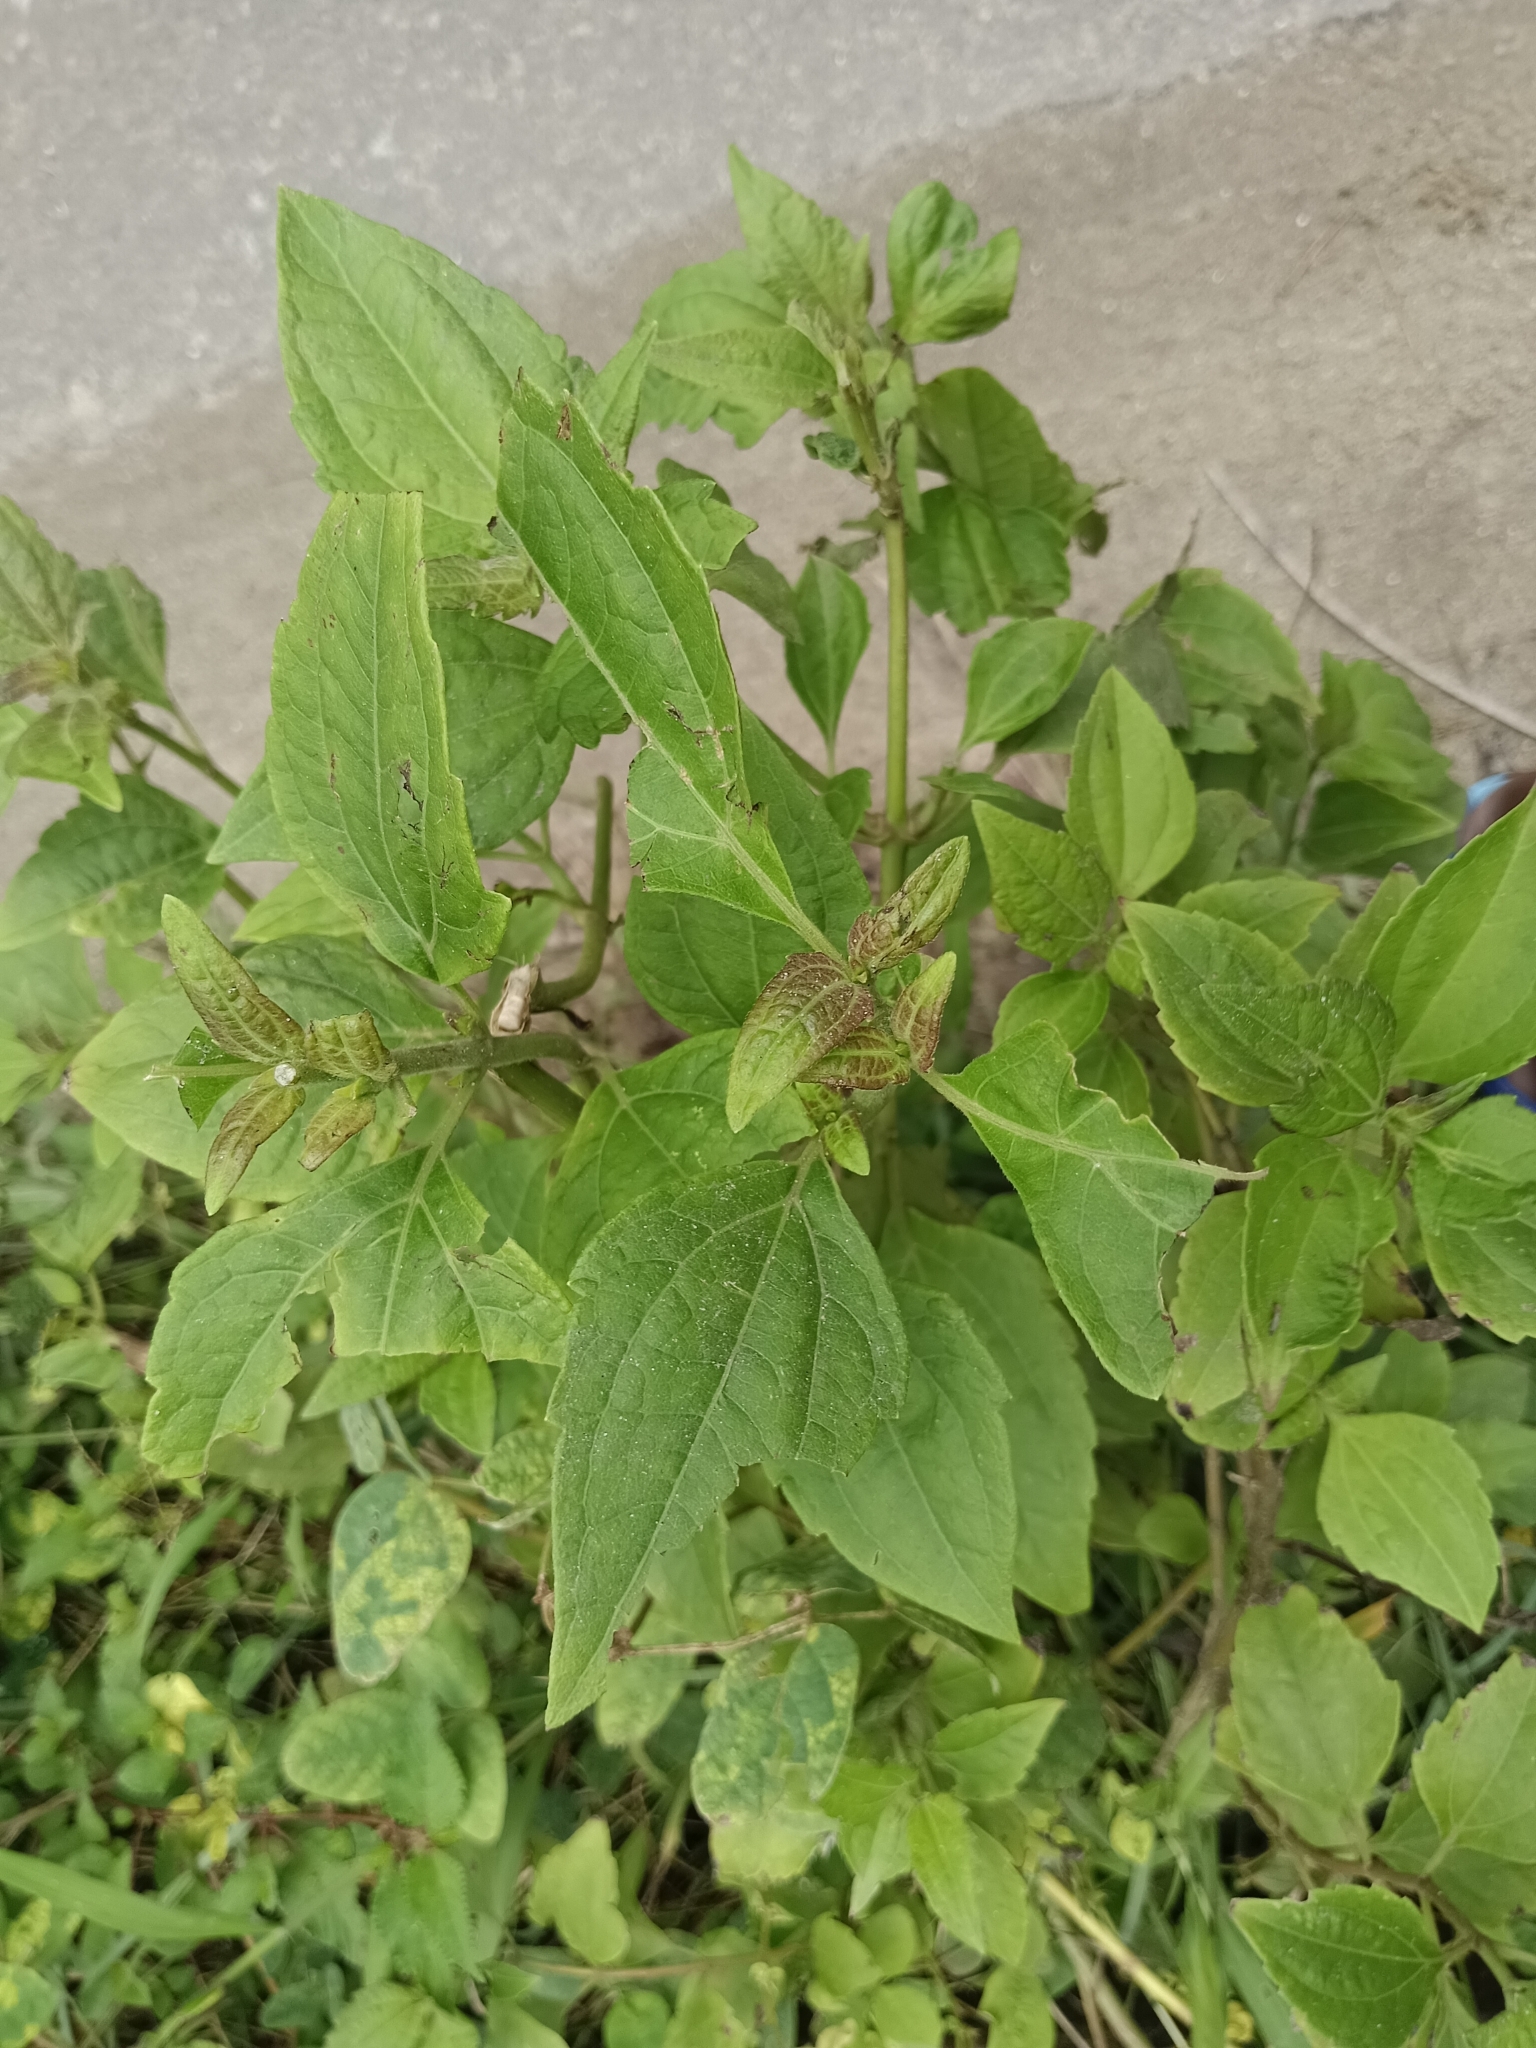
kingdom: Plantae
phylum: Tracheophyta
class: Magnoliopsida
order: Asterales
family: Asteraceae
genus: Chromolaena
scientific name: Chromolaena odorata
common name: Siamweed
